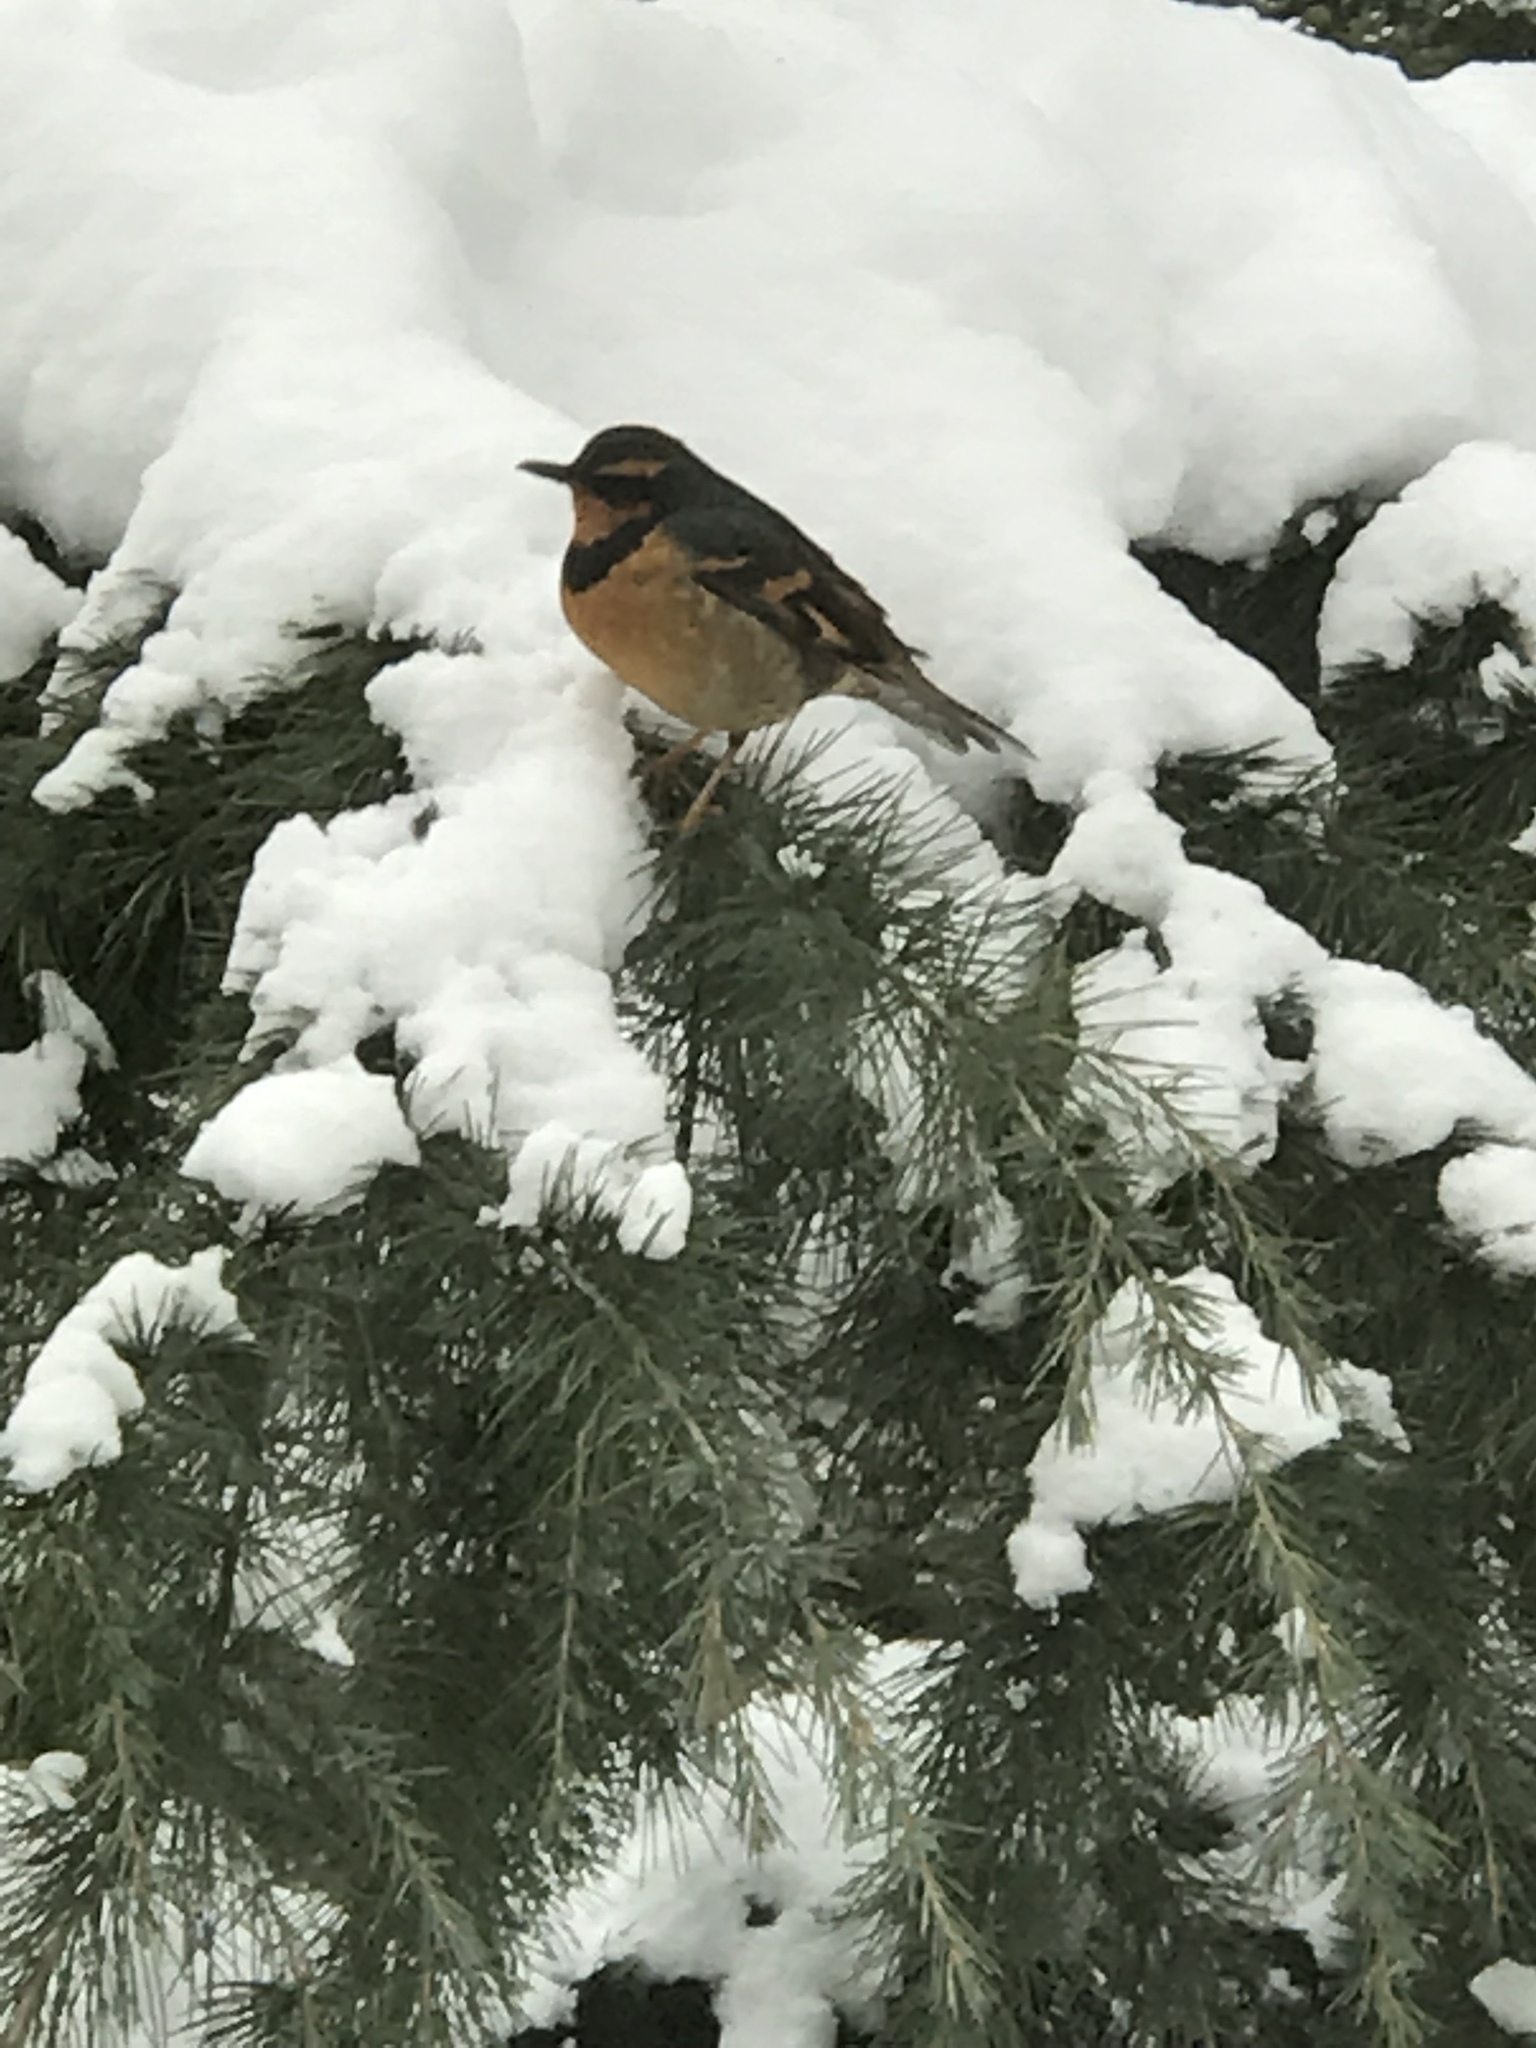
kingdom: Animalia
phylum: Chordata
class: Aves
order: Passeriformes
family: Turdidae
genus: Ixoreus
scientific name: Ixoreus naevius
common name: Varied thrush
